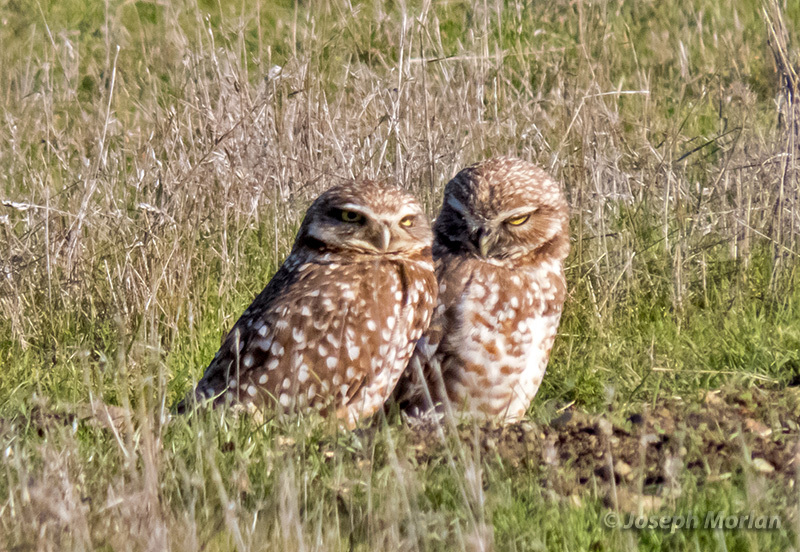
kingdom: Animalia
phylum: Chordata
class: Aves
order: Strigiformes
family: Strigidae
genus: Athene
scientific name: Athene cunicularia
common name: Burrowing owl
